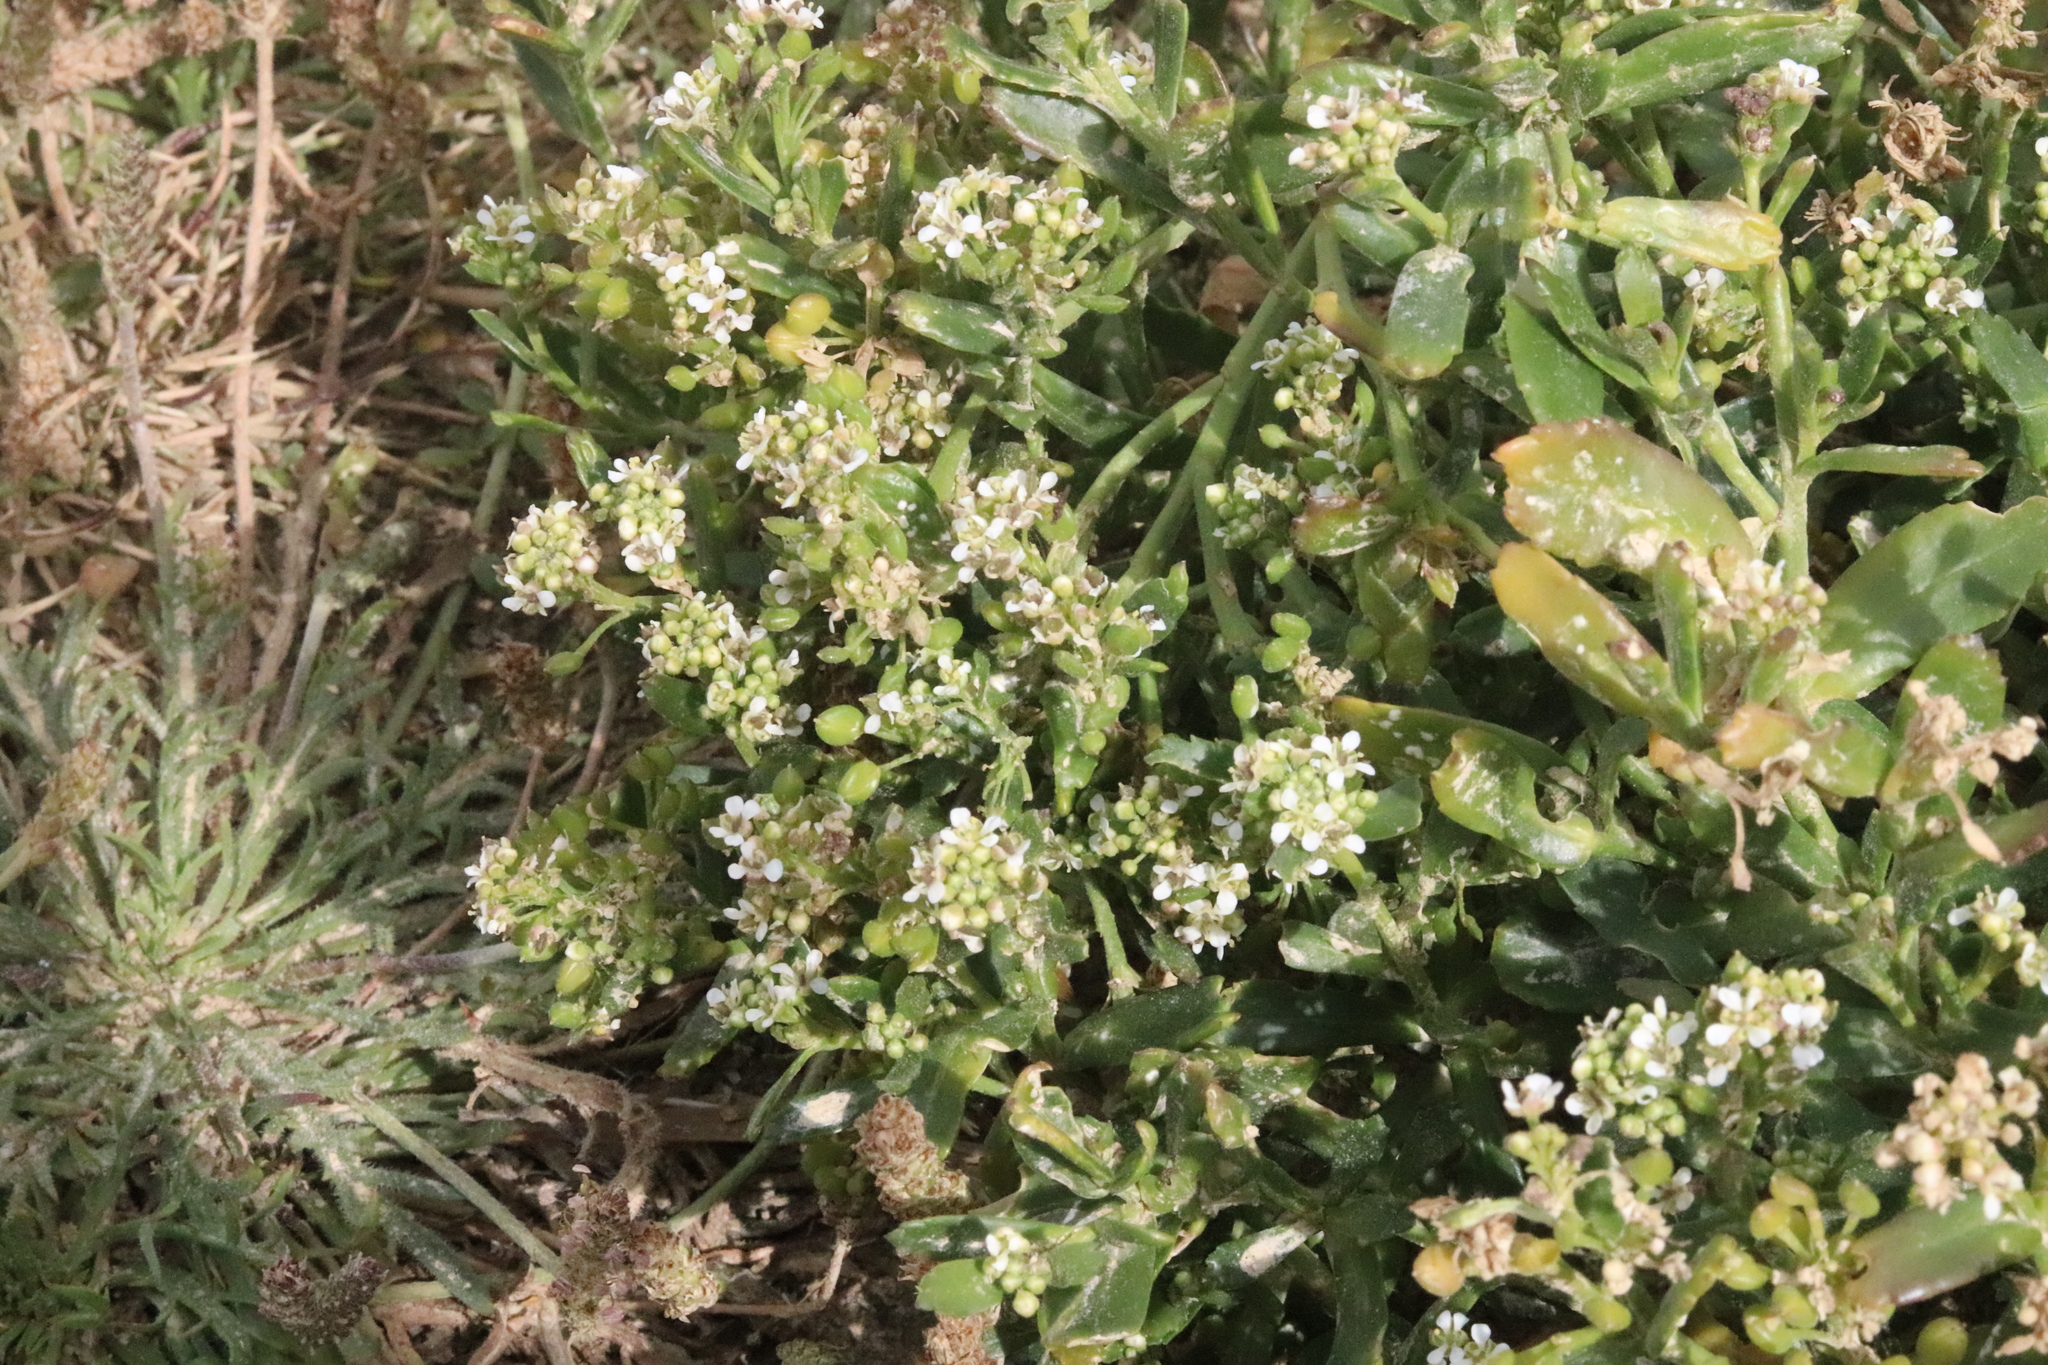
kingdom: Plantae
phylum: Tracheophyta
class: Magnoliopsida
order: Brassicales
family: Brassicaceae
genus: Lepidium
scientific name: Lepidium crassum
